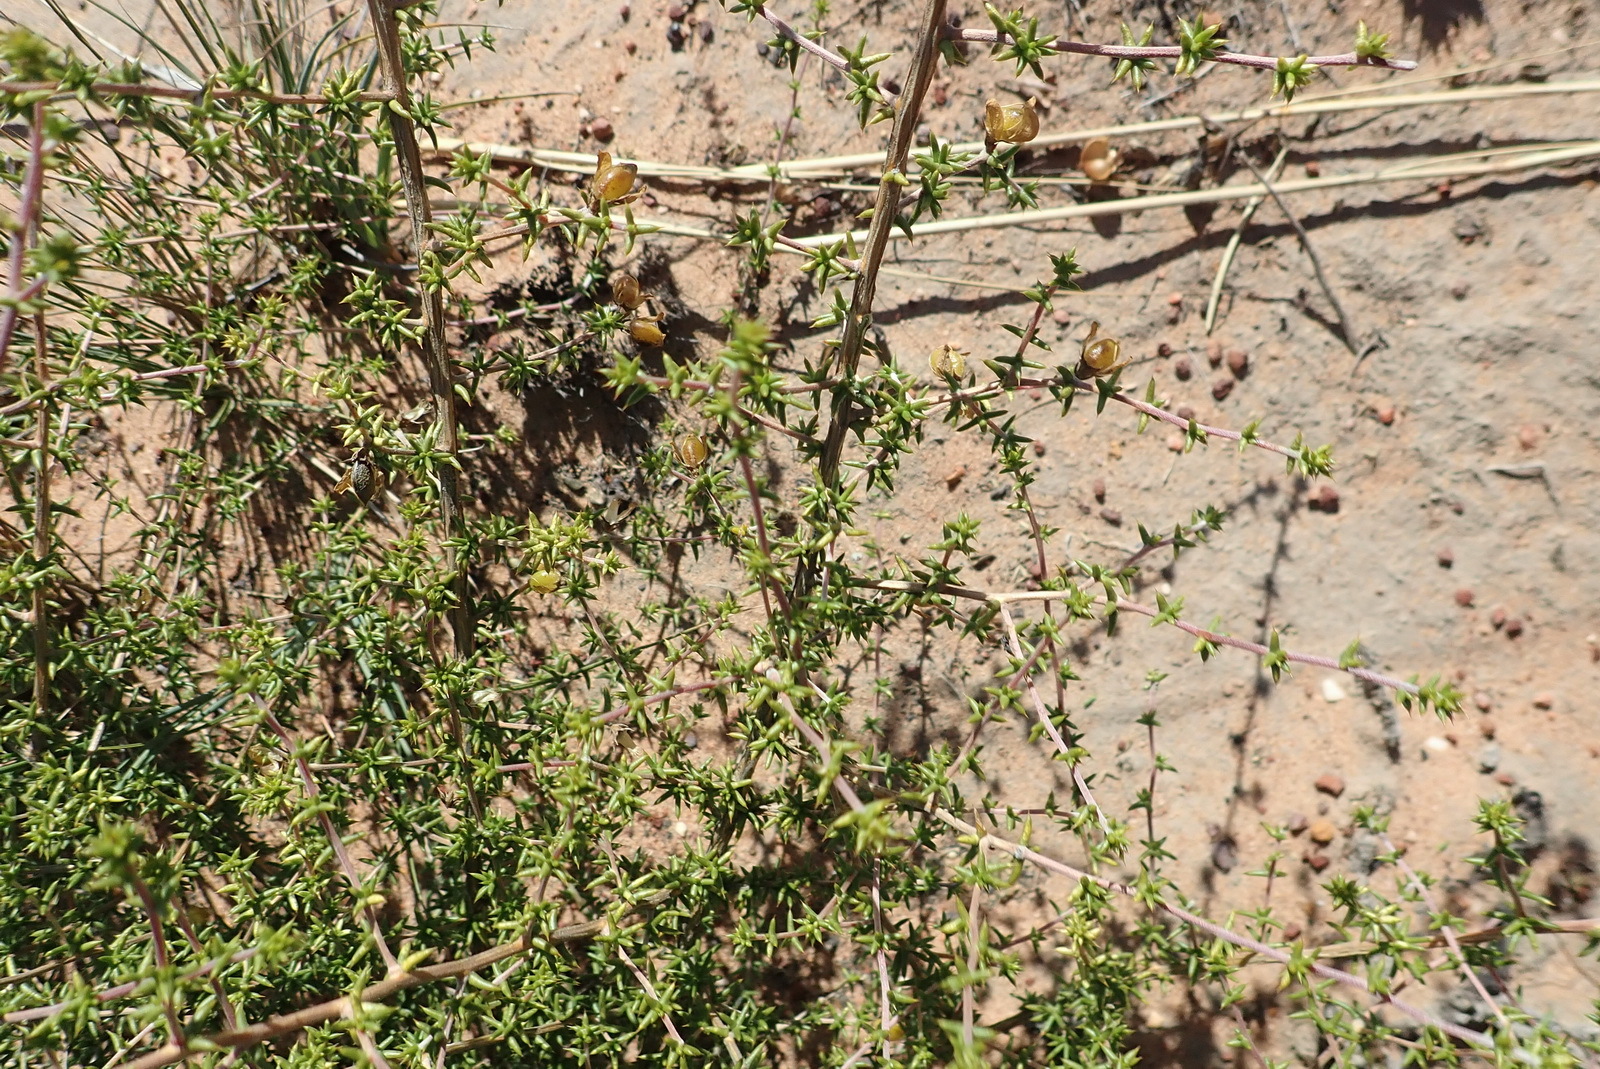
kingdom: Plantae
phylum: Tracheophyta
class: Magnoliopsida
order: Fabales
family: Fabaceae
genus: Aspalathus
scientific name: Aspalathus collina
